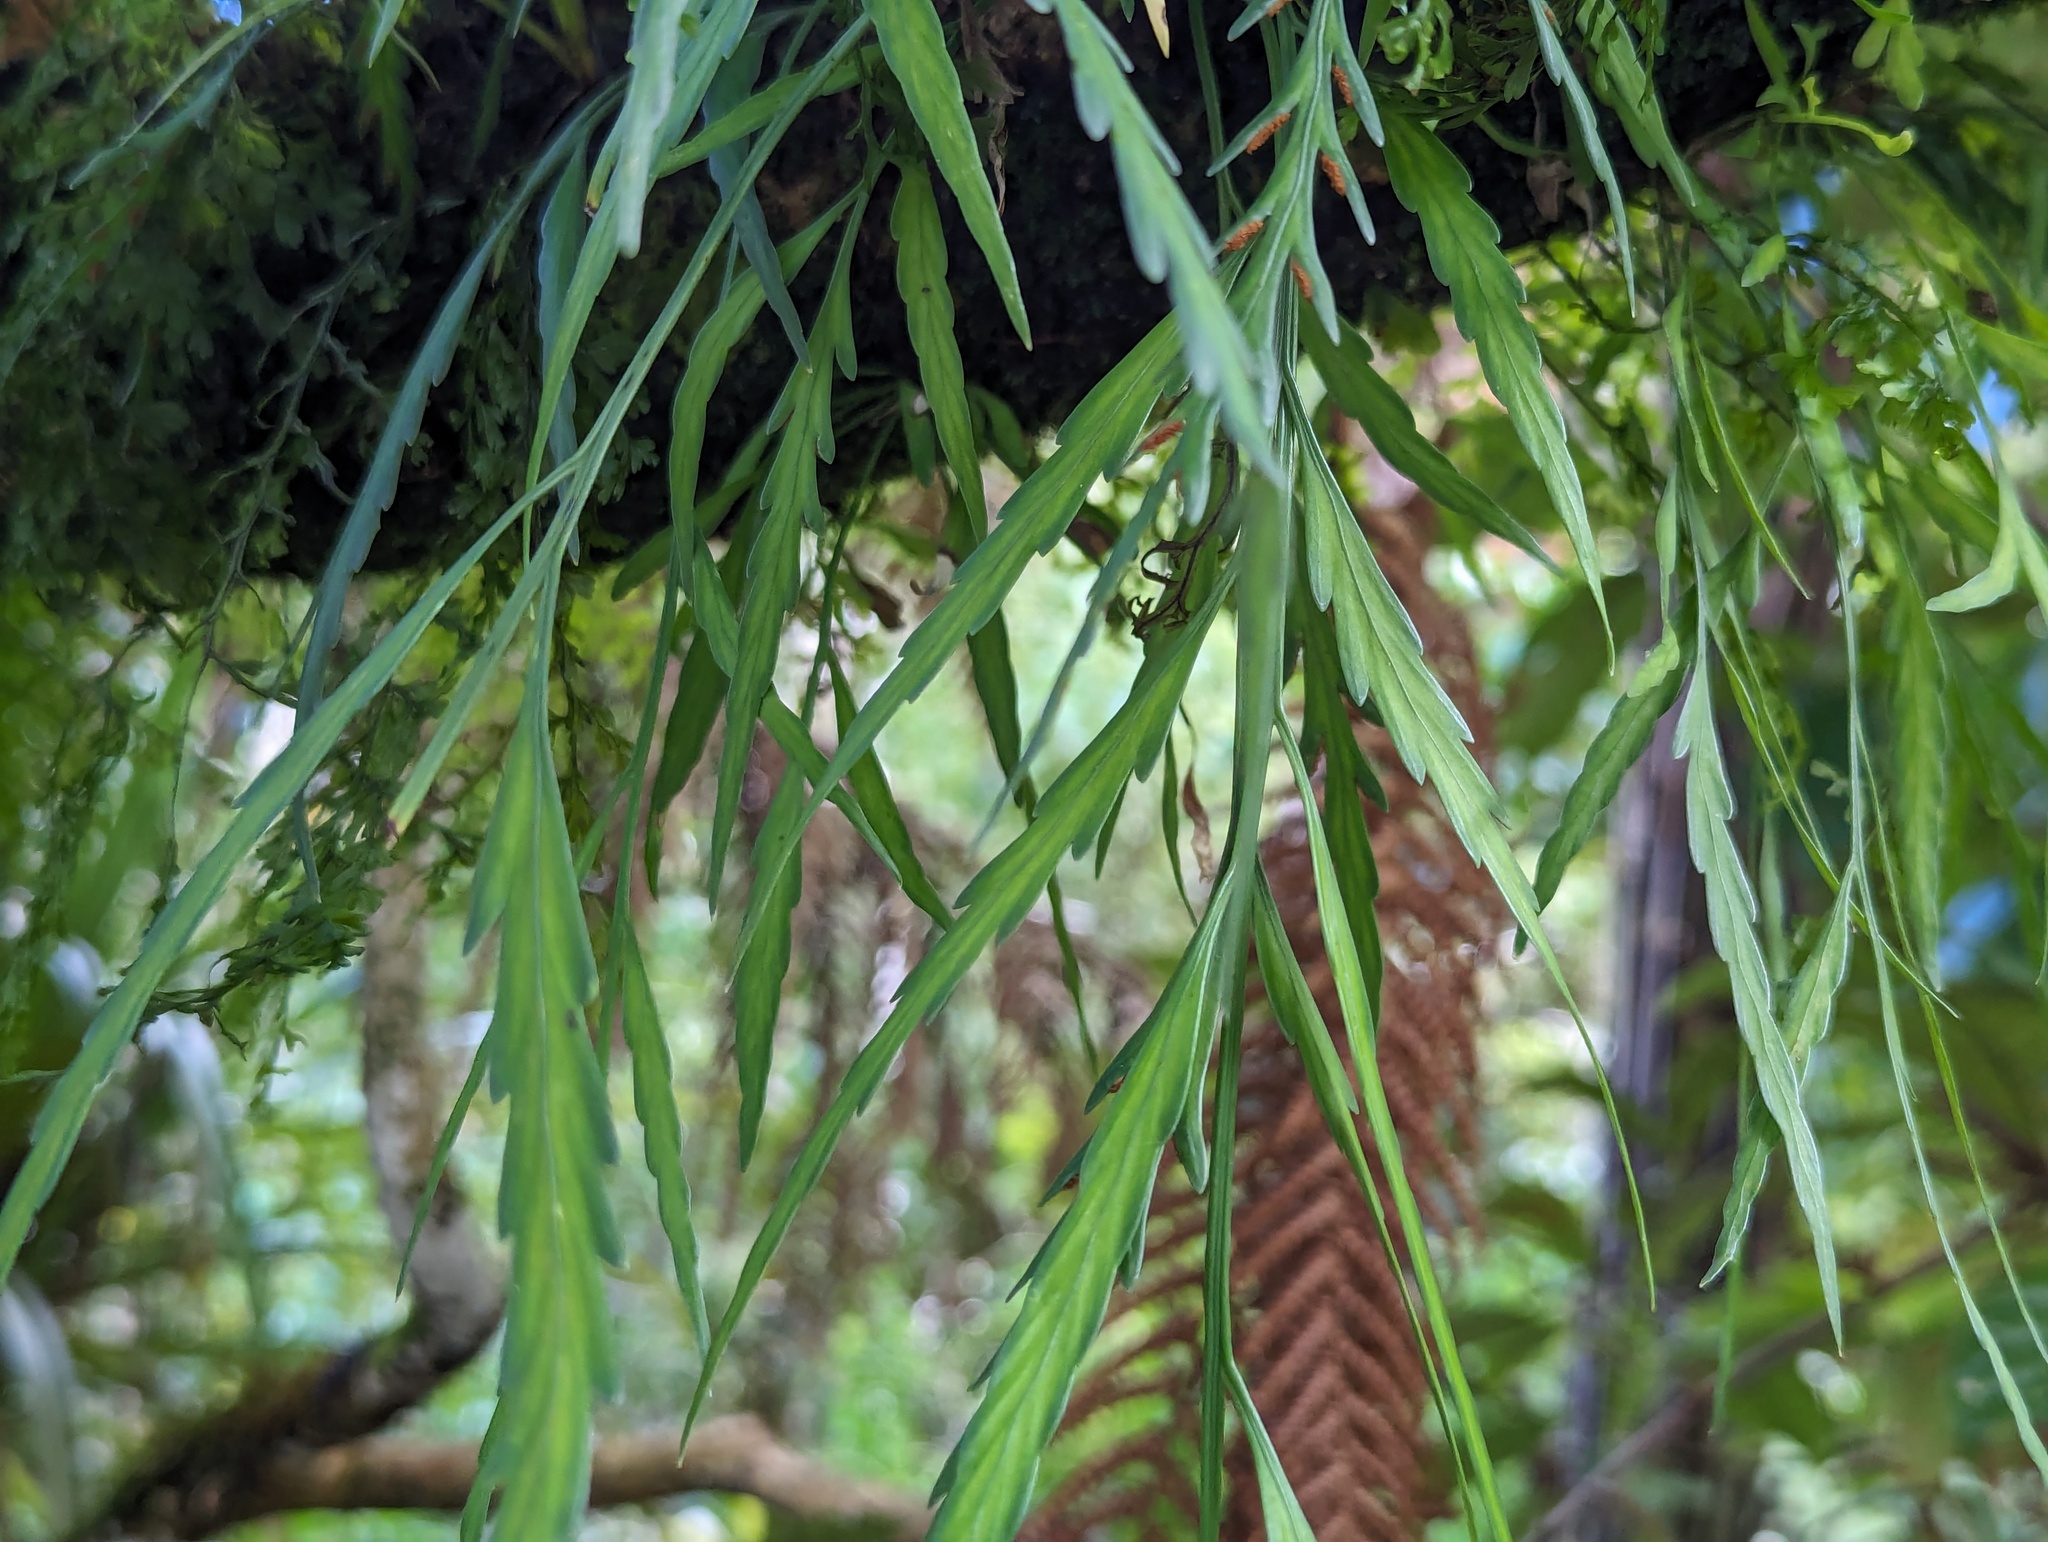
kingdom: Plantae
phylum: Tracheophyta
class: Polypodiopsida
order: Polypodiales
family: Aspleniaceae
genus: Asplenium
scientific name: Asplenium flaccidum
